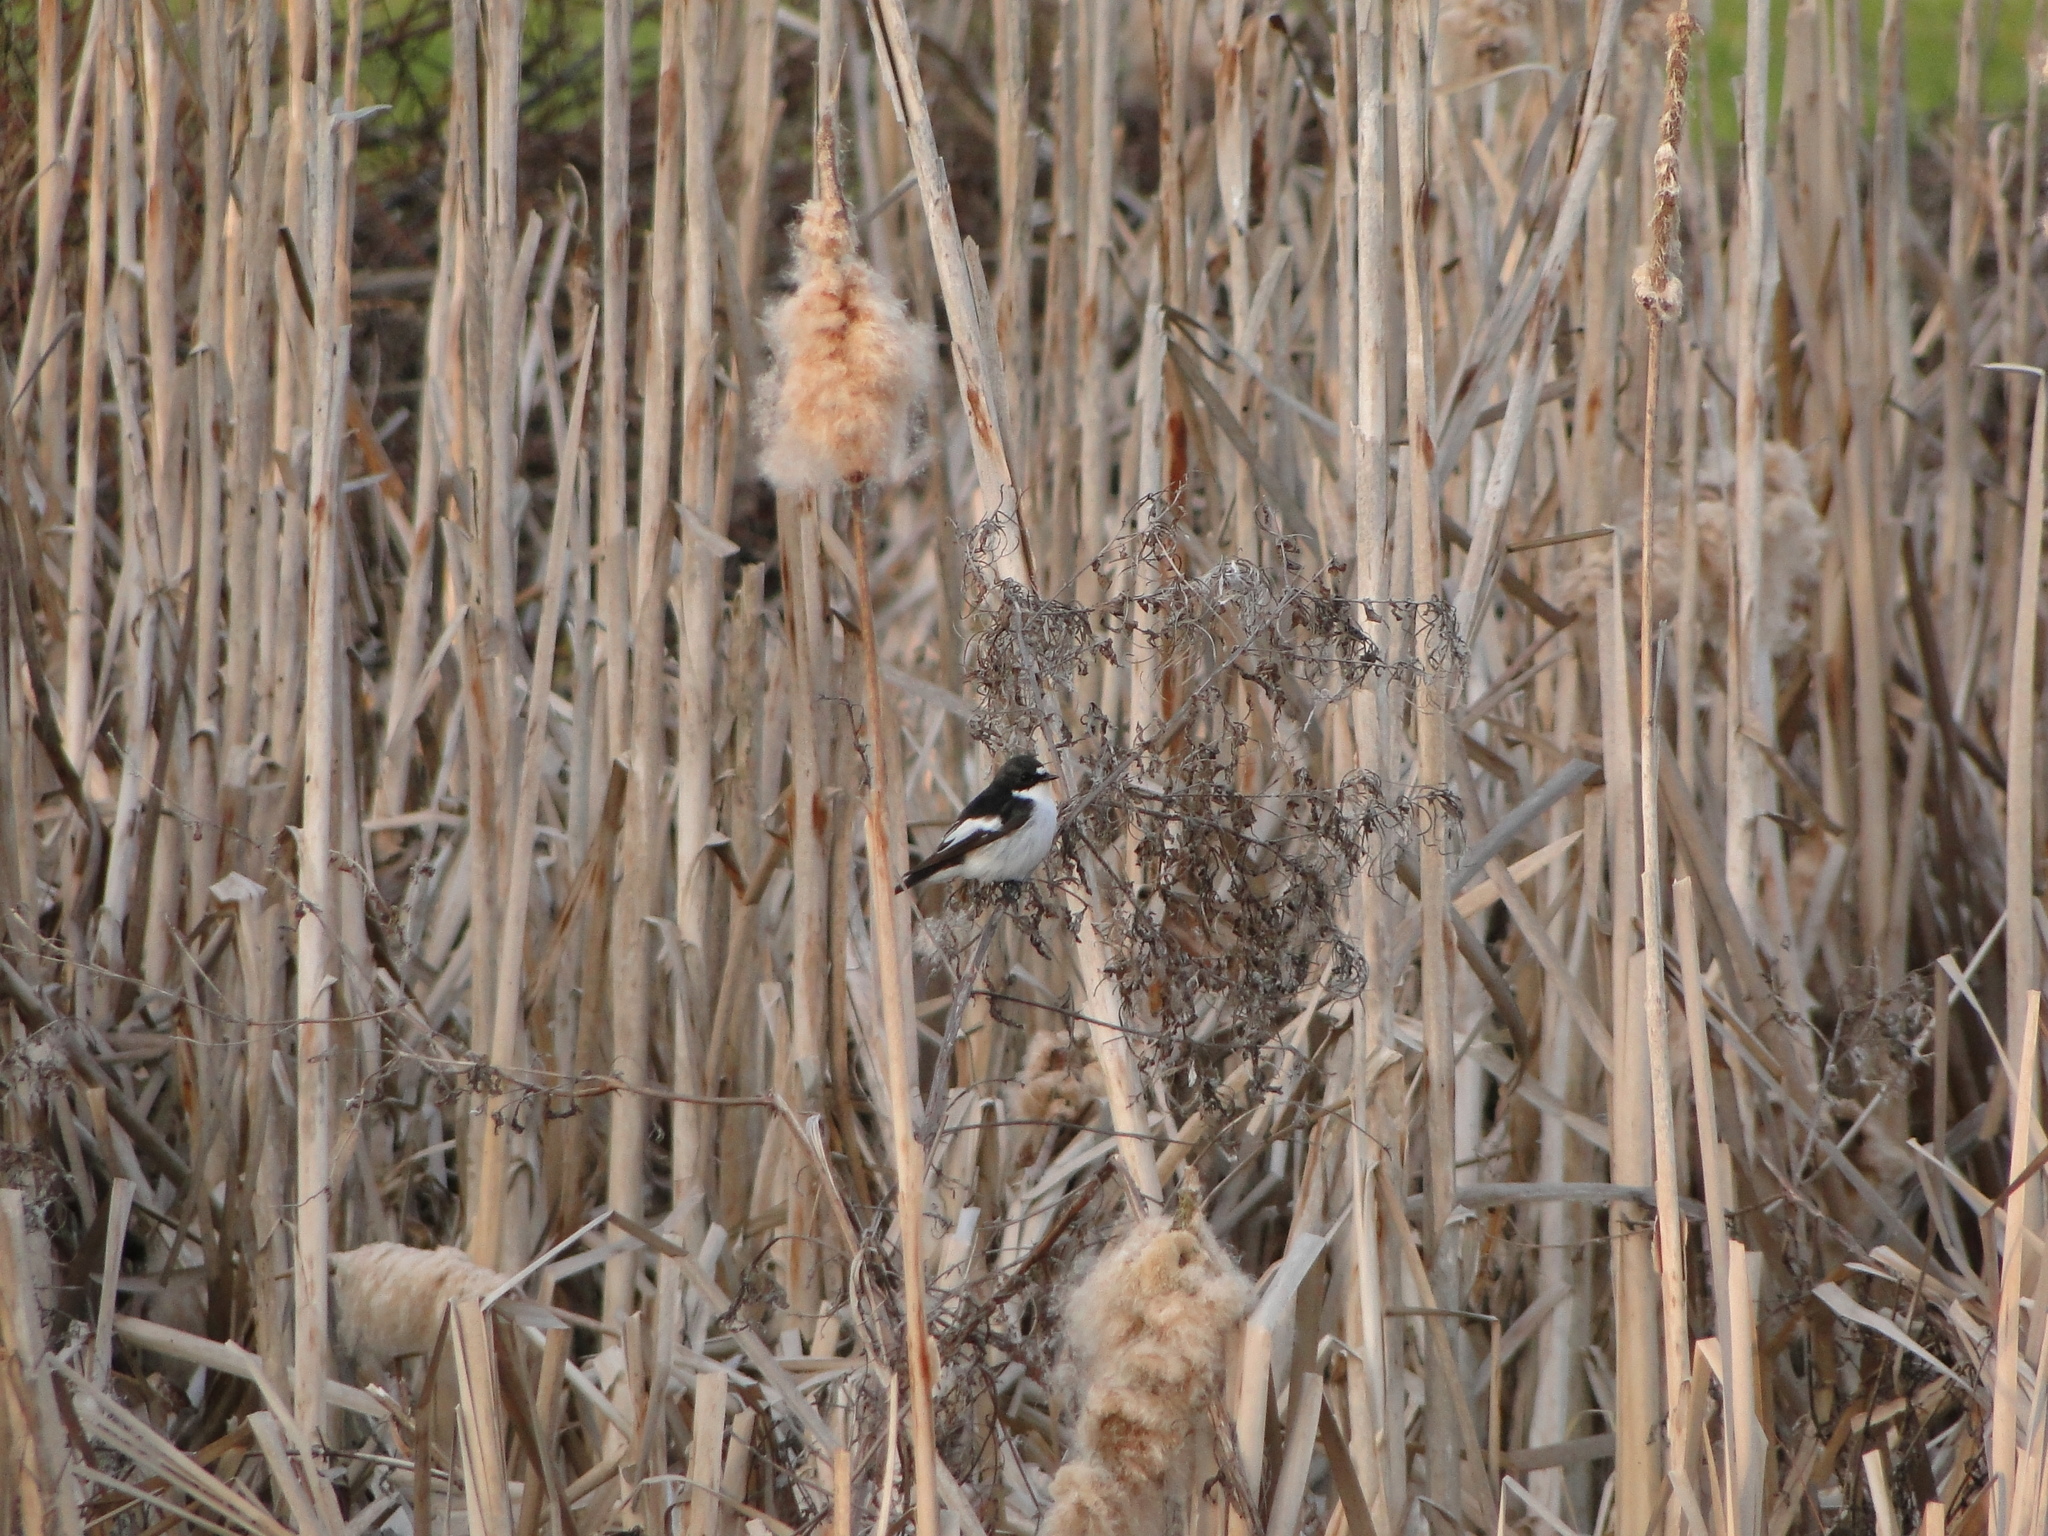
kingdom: Animalia
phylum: Chordata
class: Aves
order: Passeriformes
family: Muscicapidae
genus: Ficedula
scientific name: Ficedula hypoleuca
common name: European pied flycatcher
